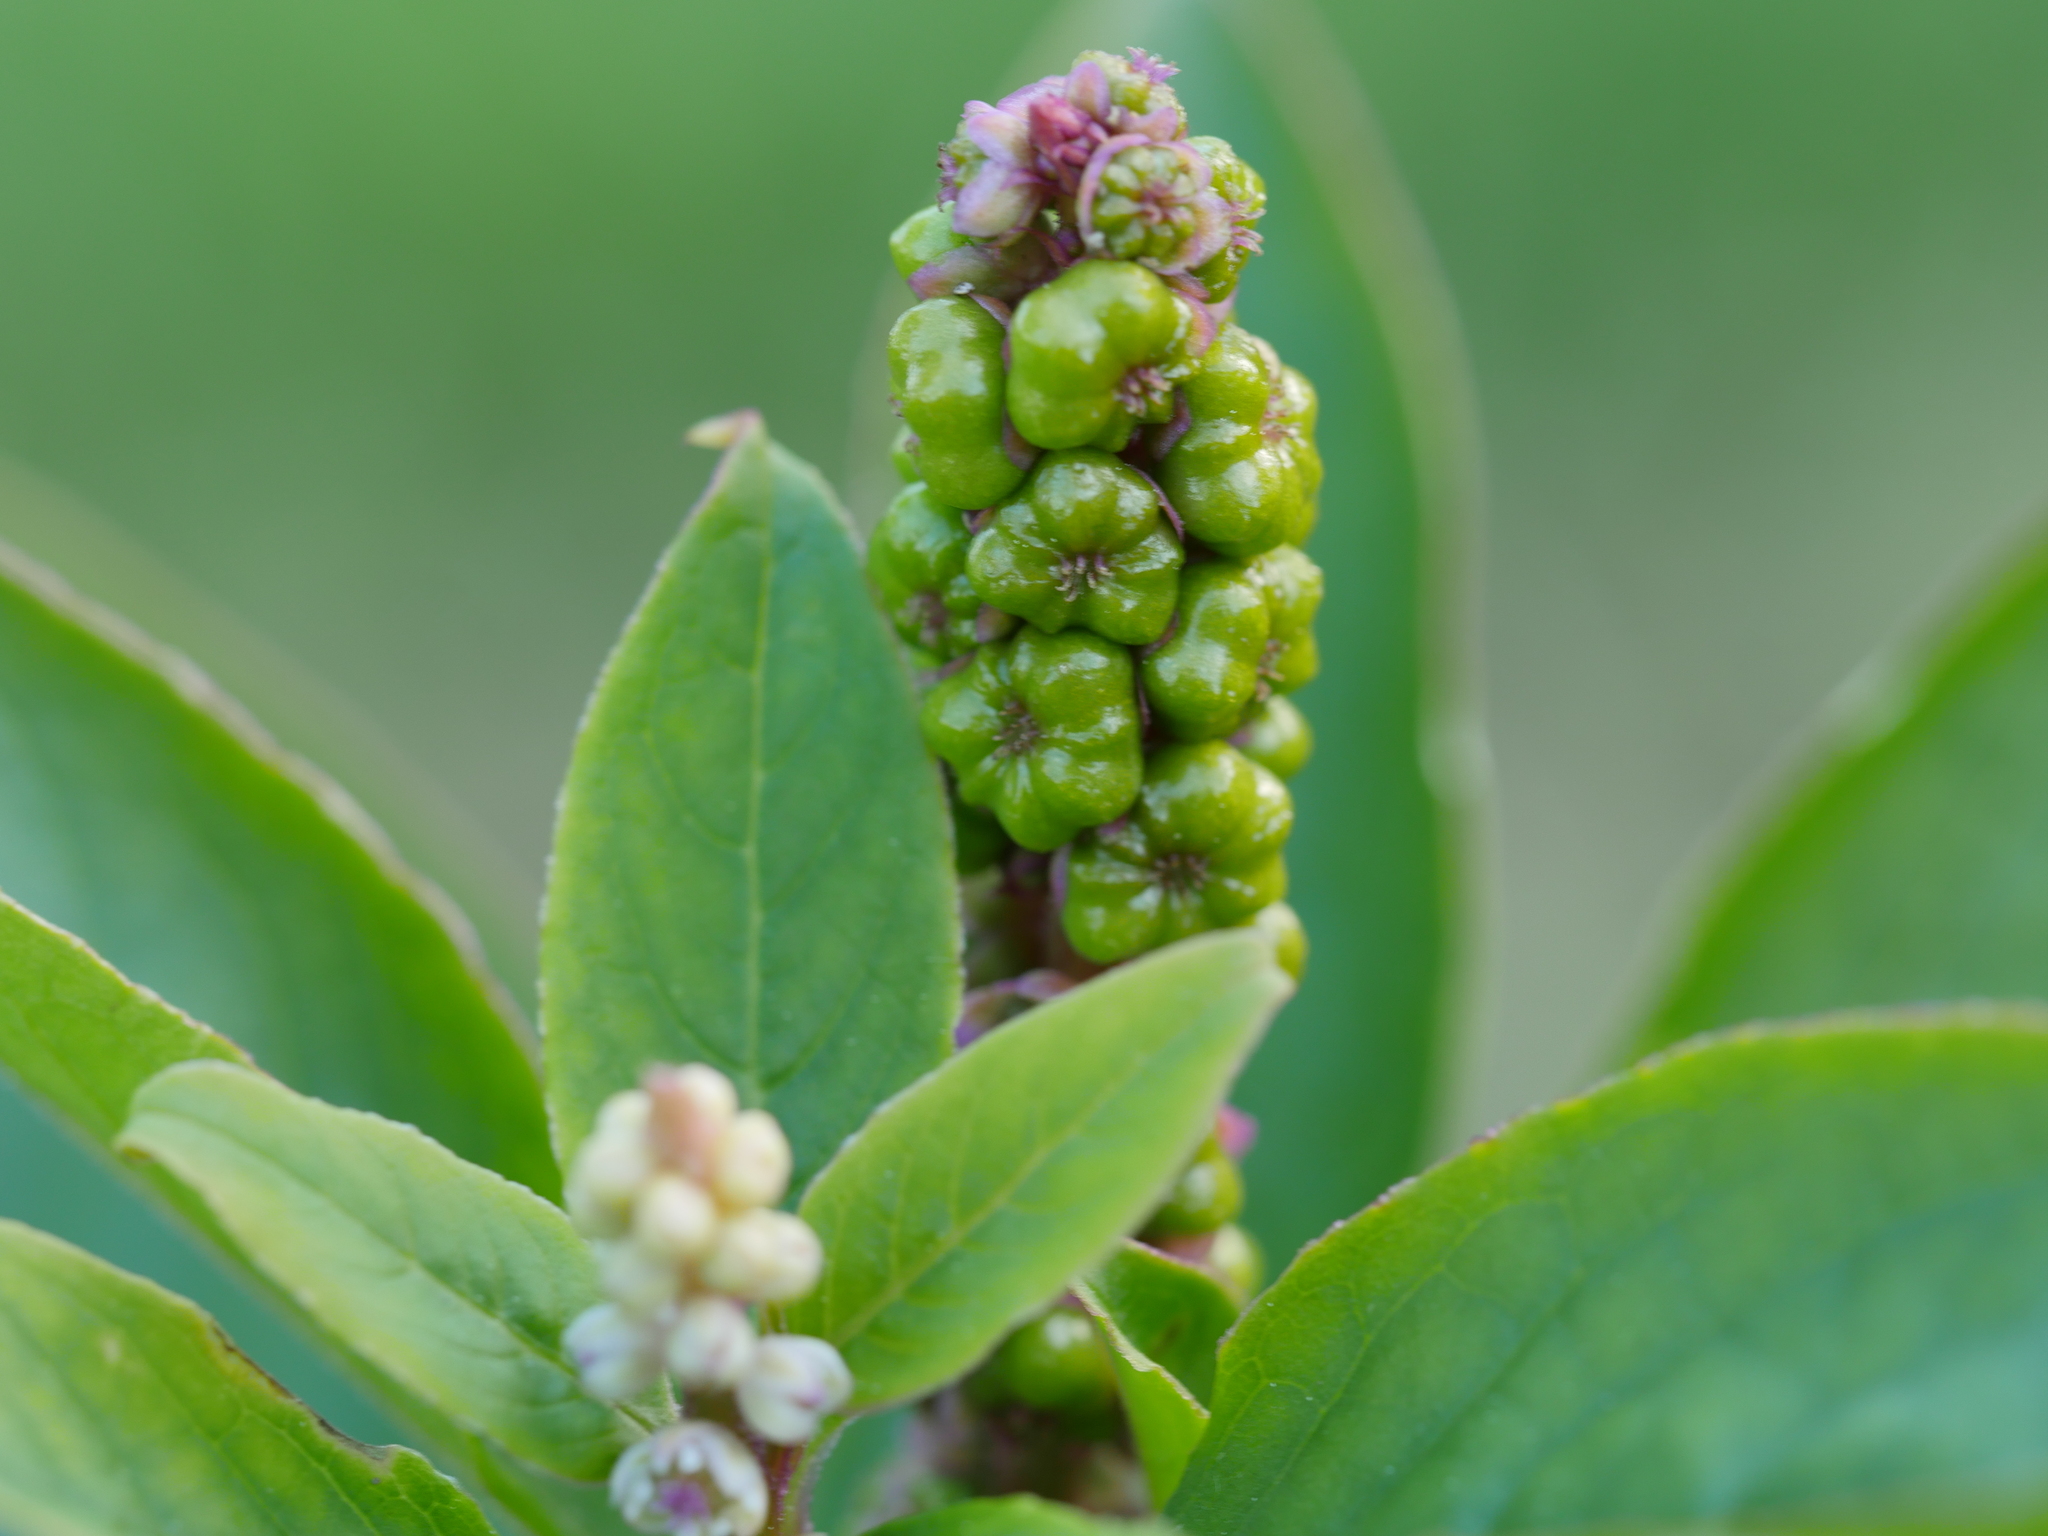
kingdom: Plantae
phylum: Tracheophyta
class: Magnoliopsida
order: Caryophyllales
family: Phytolaccaceae
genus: Phytolacca
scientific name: Phytolacca icosandra
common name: Button pokeweed
